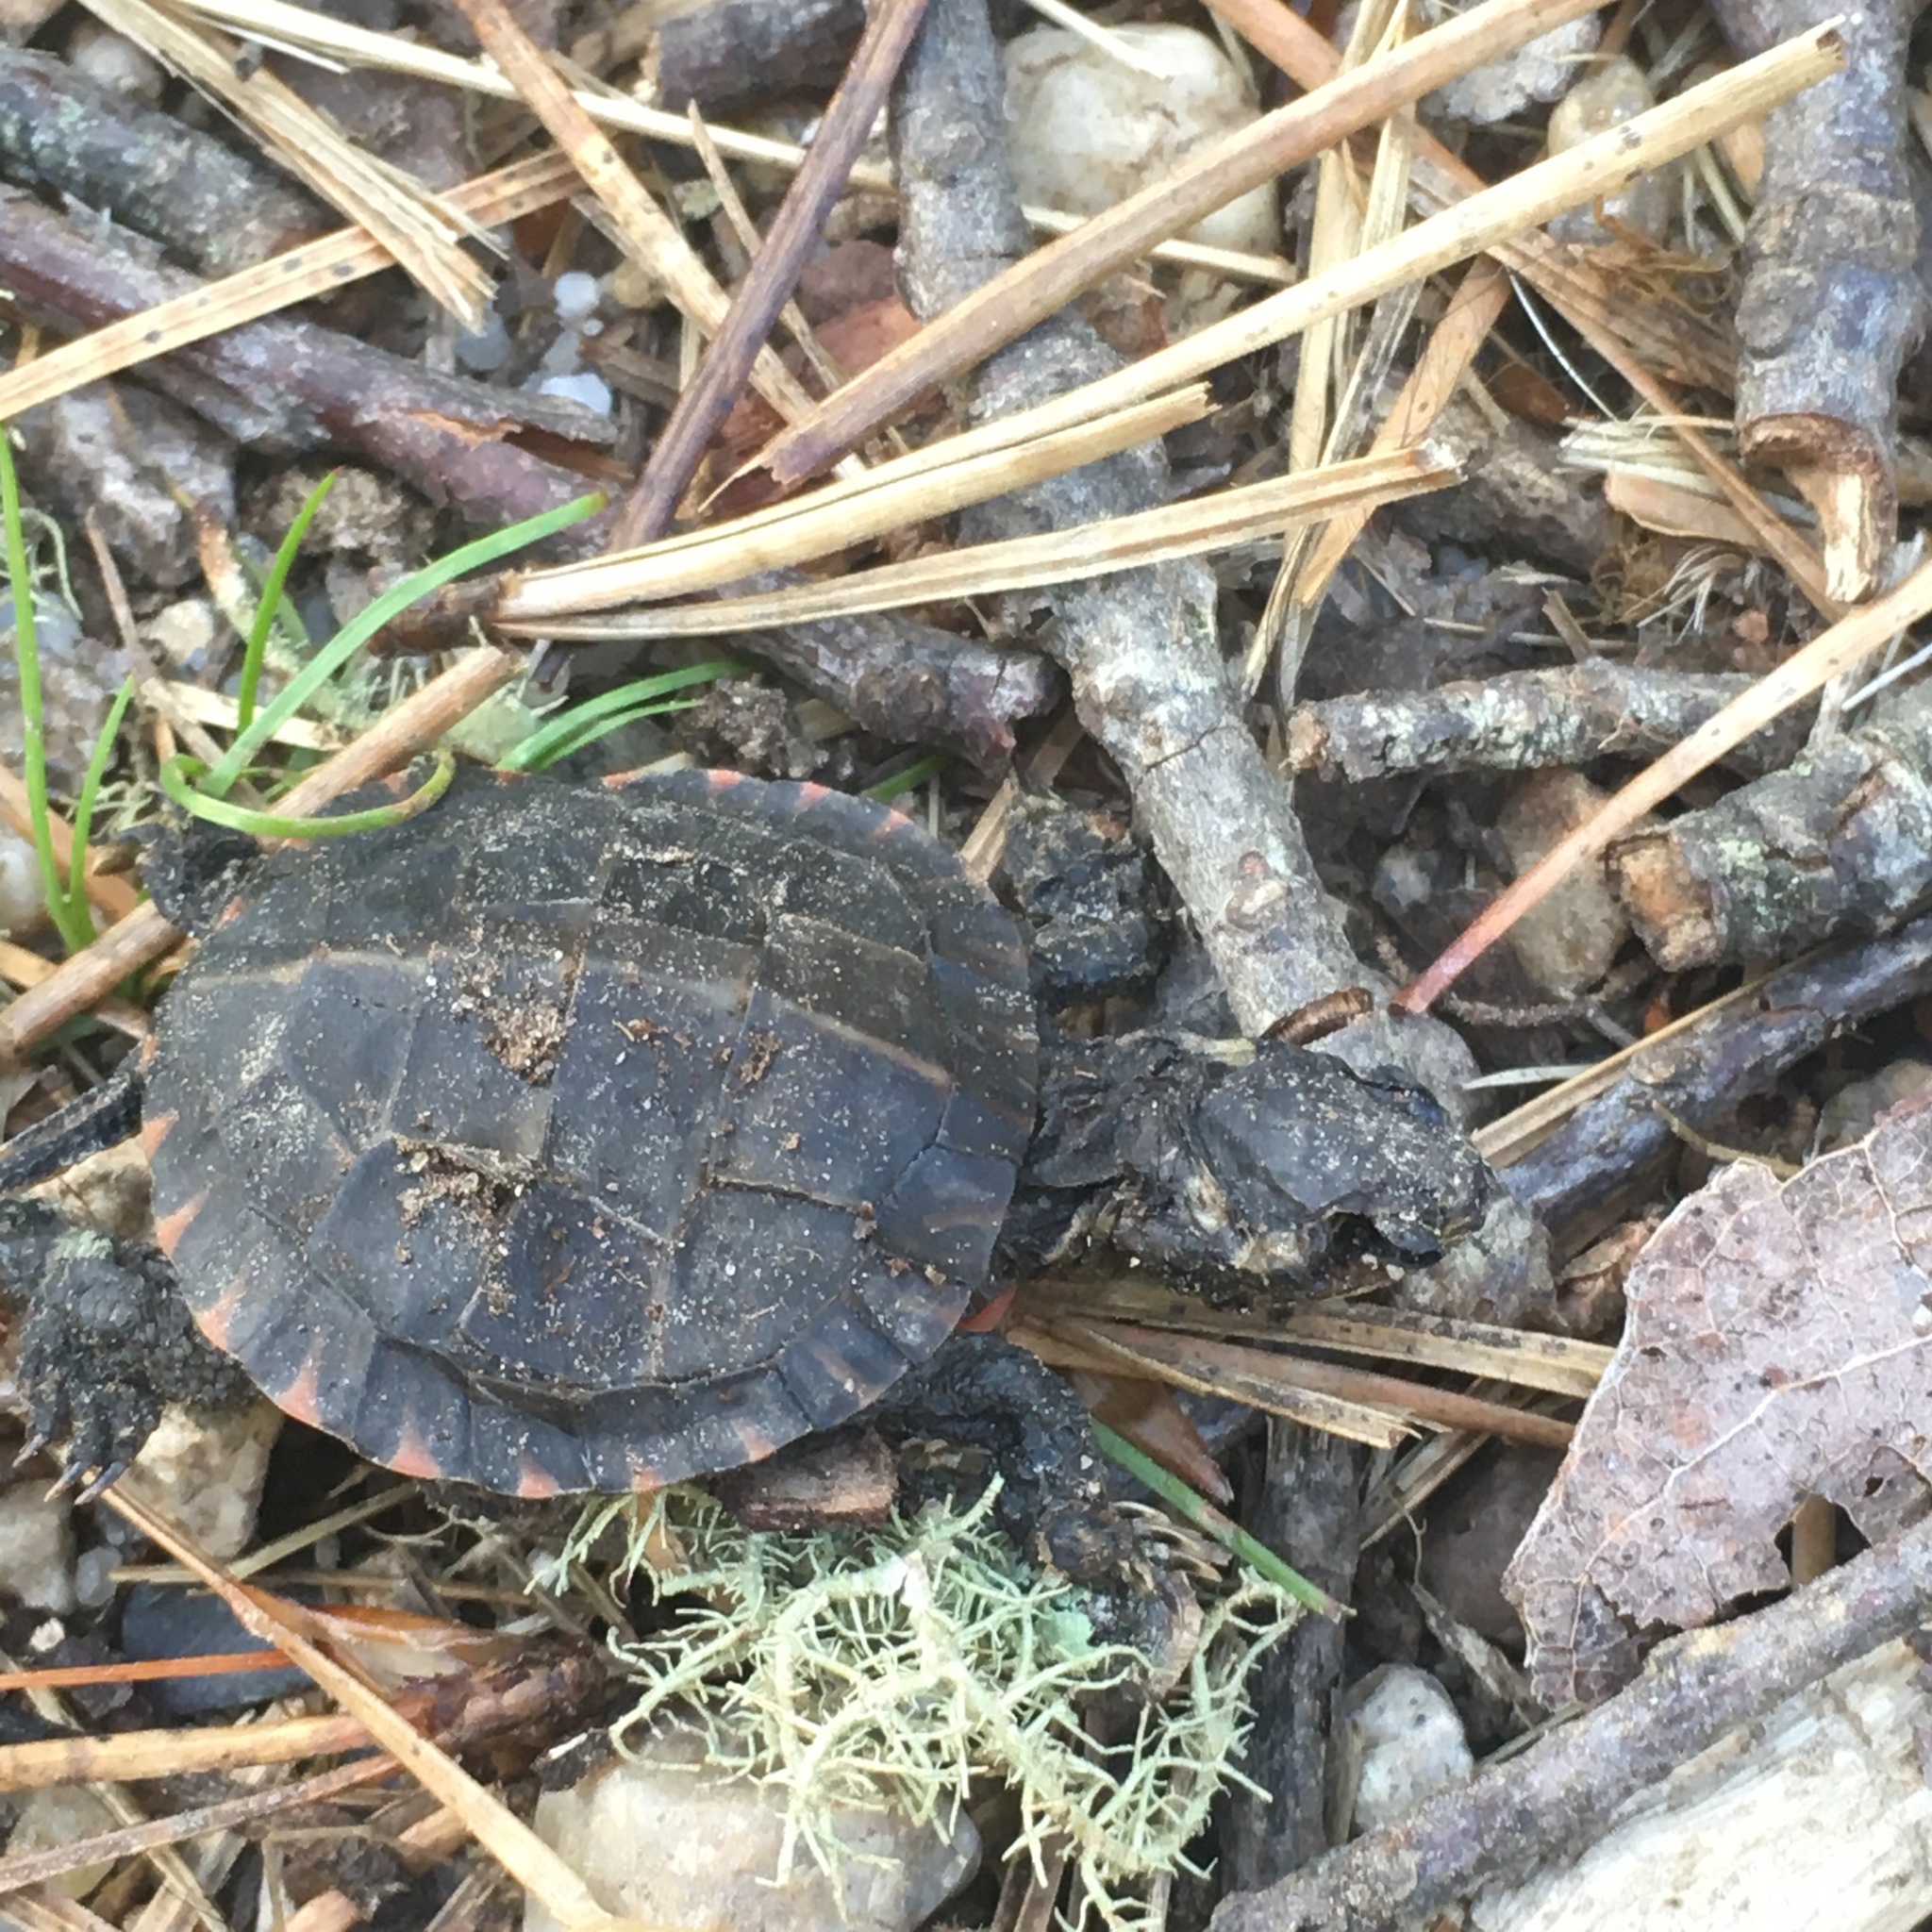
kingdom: Animalia
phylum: Chordata
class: Testudines
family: Emydidae
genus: Chrysemys
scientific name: Chrysemys picta
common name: Painted turtle
